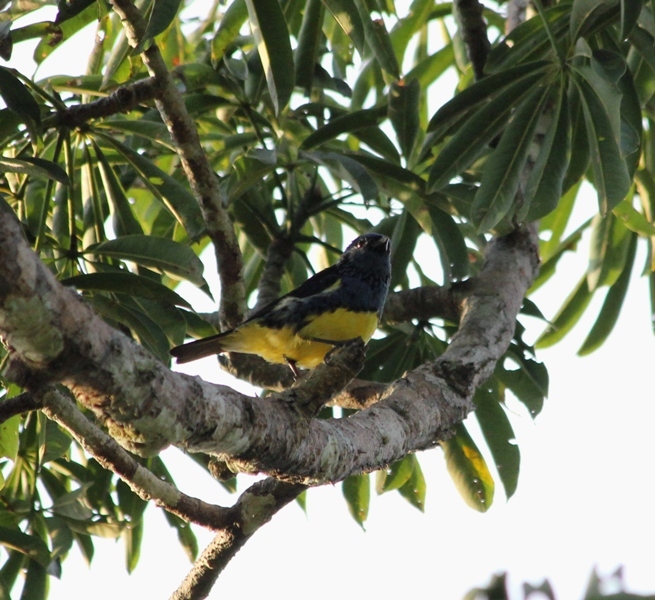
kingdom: Animalia
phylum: Chordata
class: Aves
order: Passeriformes
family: Thraupidae
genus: Tangara
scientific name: Tangara mexicana
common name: Turquoise tanager
